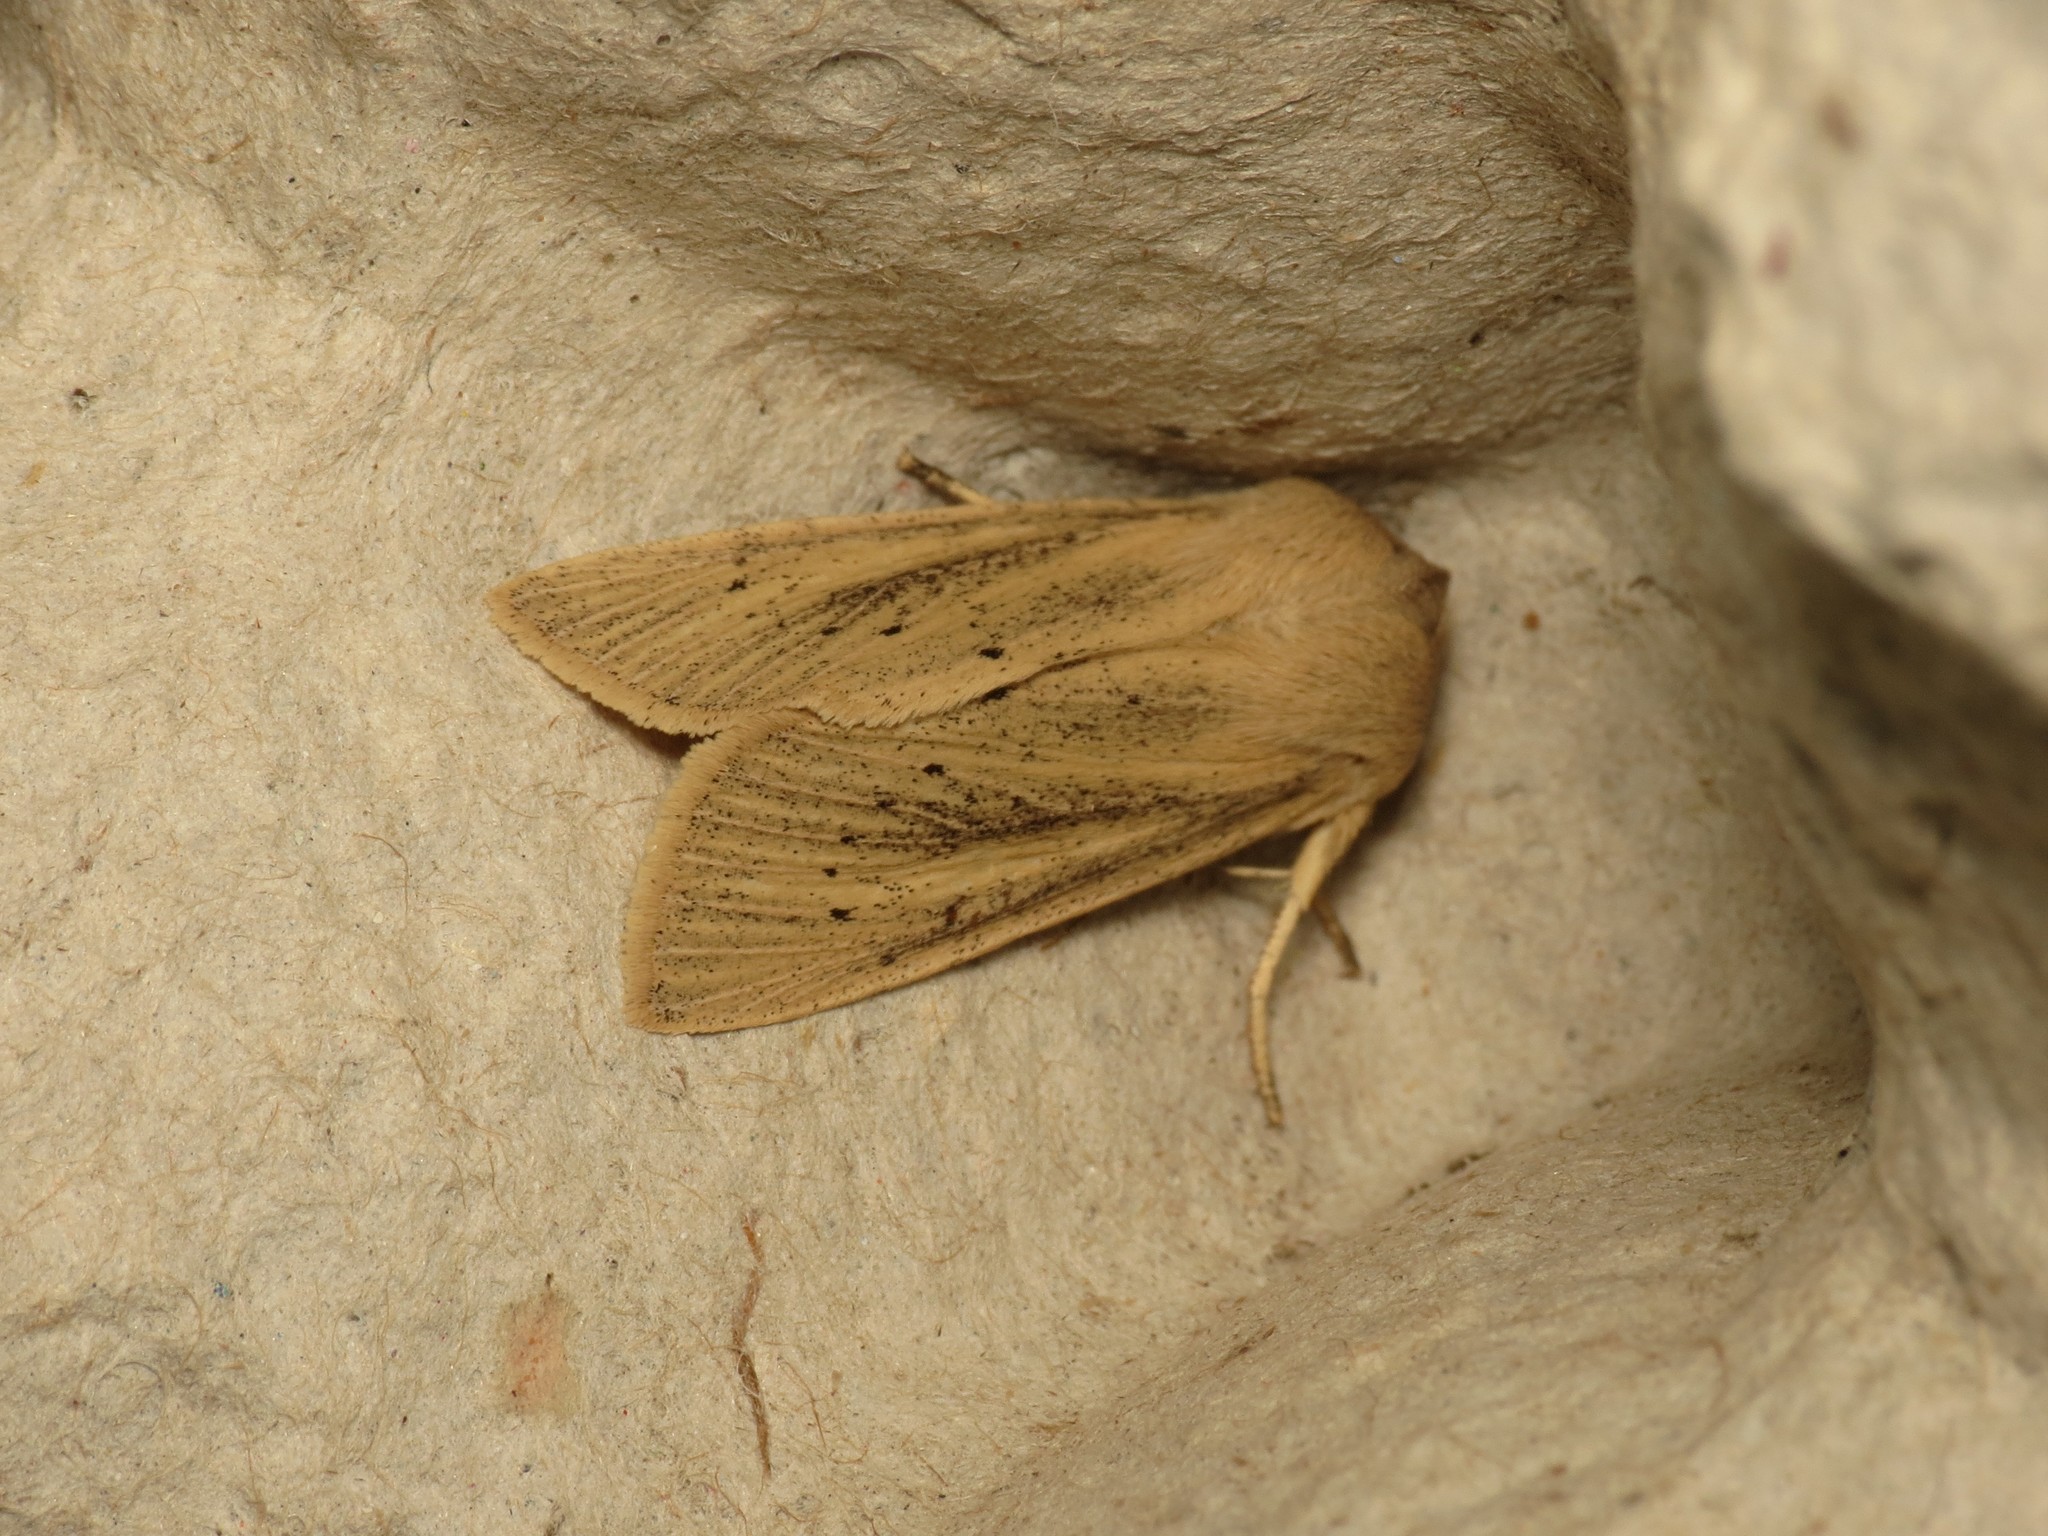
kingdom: Animalia
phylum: Arthropoda
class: Insecta
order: Lepidoptera
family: Noctuidae
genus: Rhizedra
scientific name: Rhizedra lutosa
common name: Large wainscot
